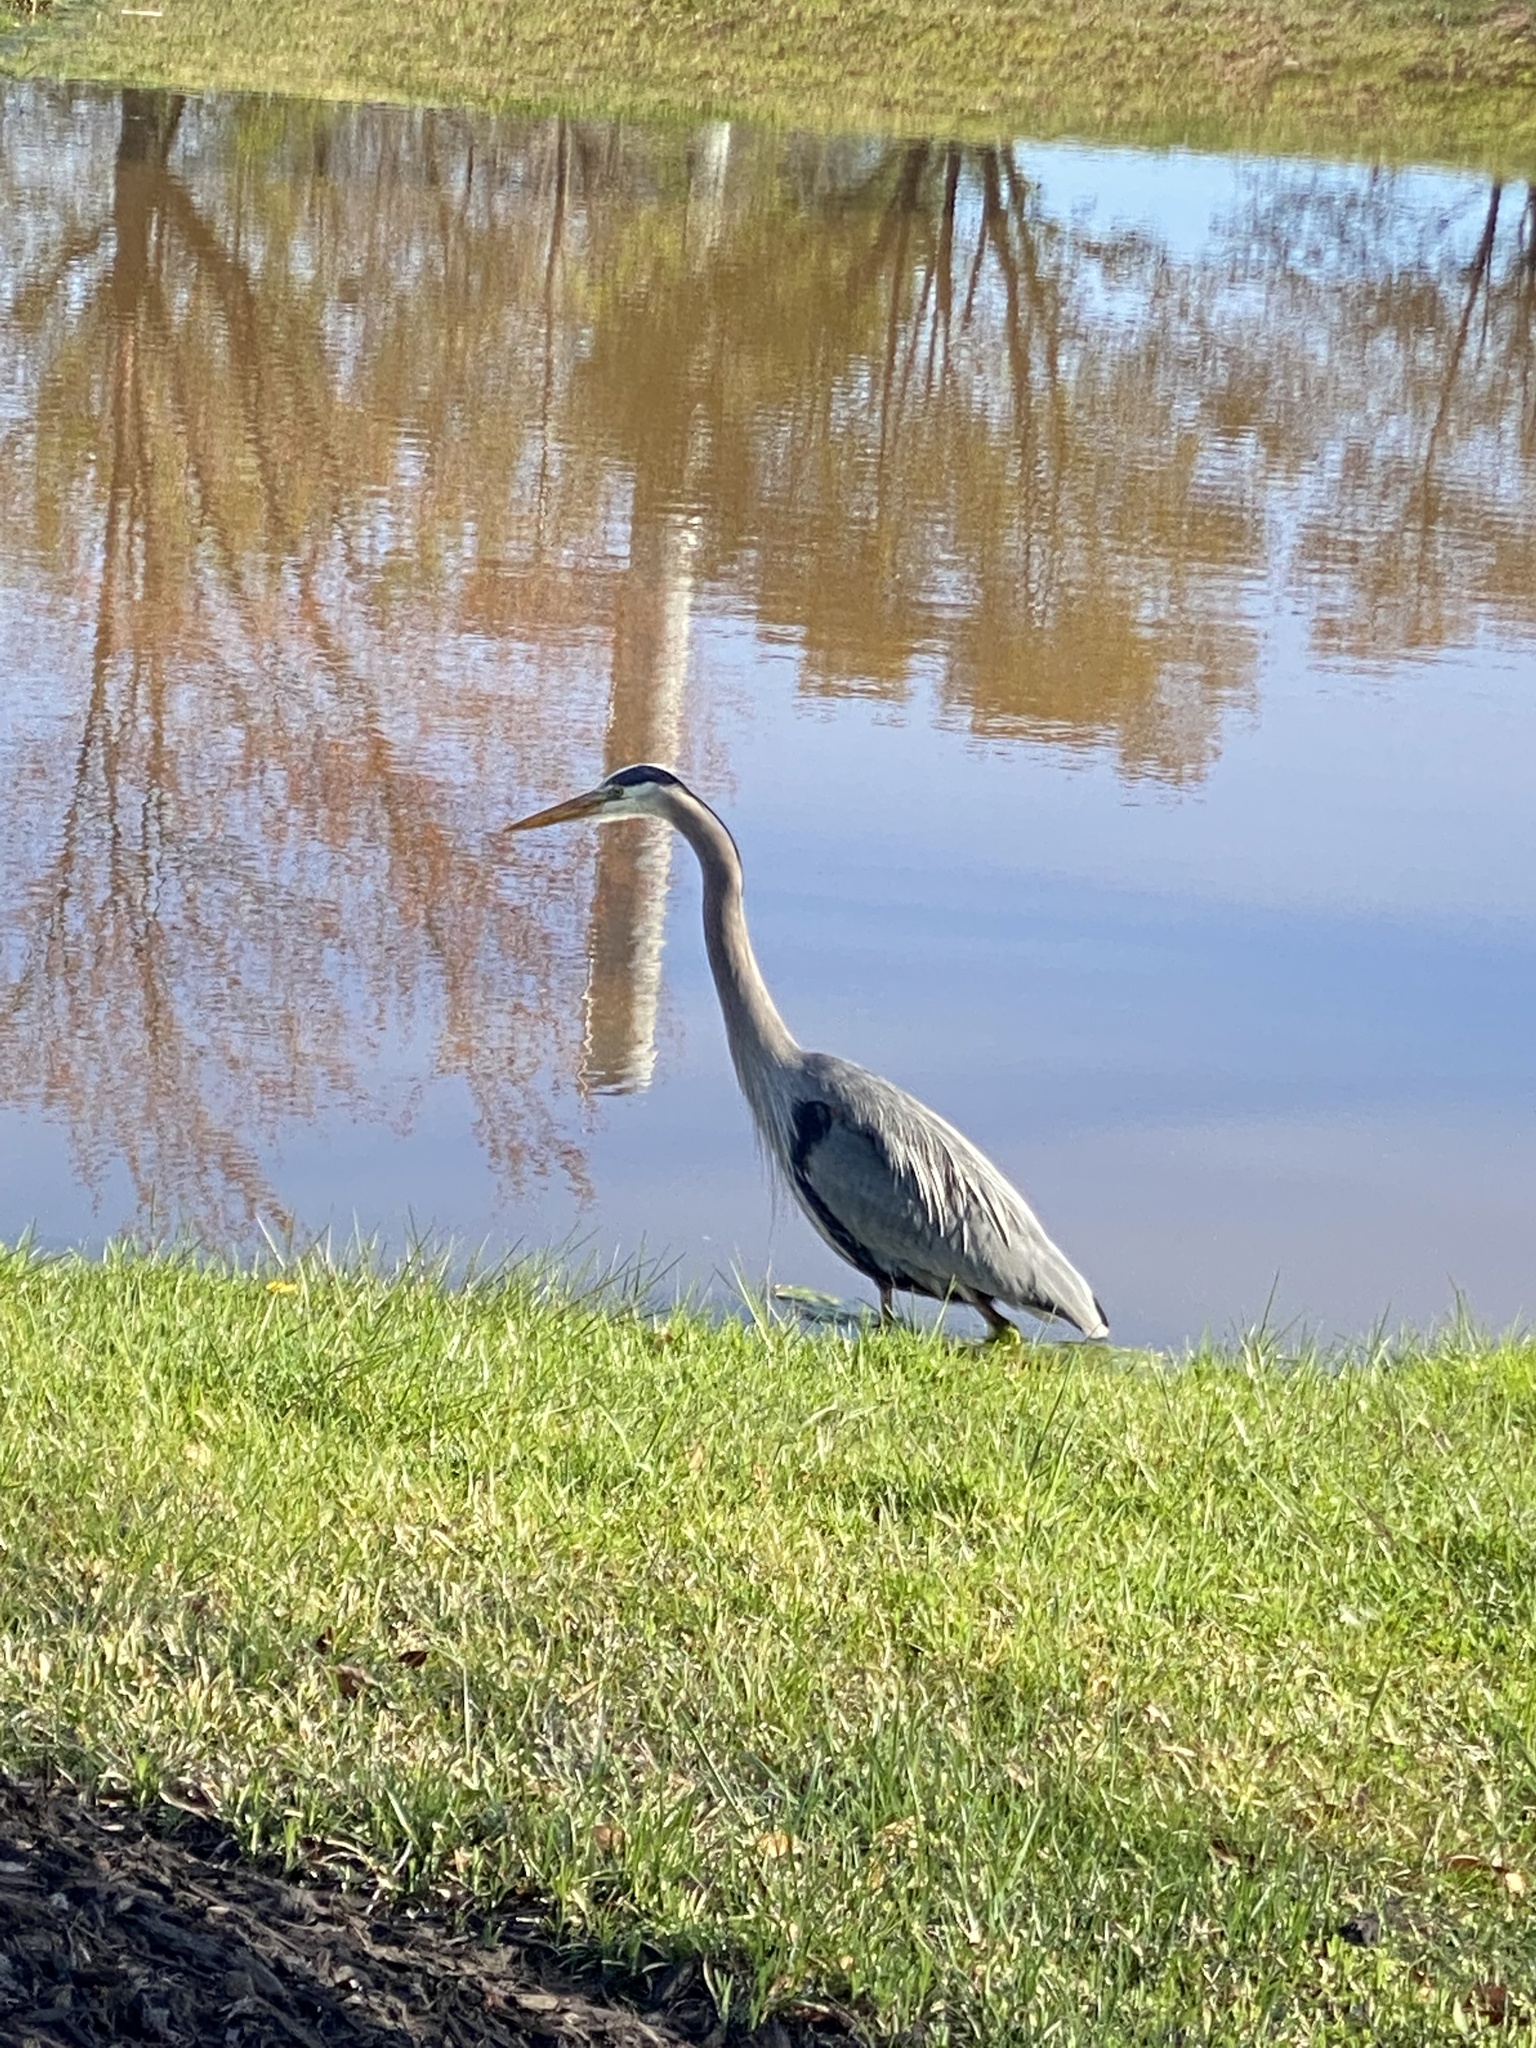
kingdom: Animalia
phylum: Chordata
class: Aves
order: Pelecaniformes
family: Ardeidae
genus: Ardea
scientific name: Ardea herodias
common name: Great blue heron
